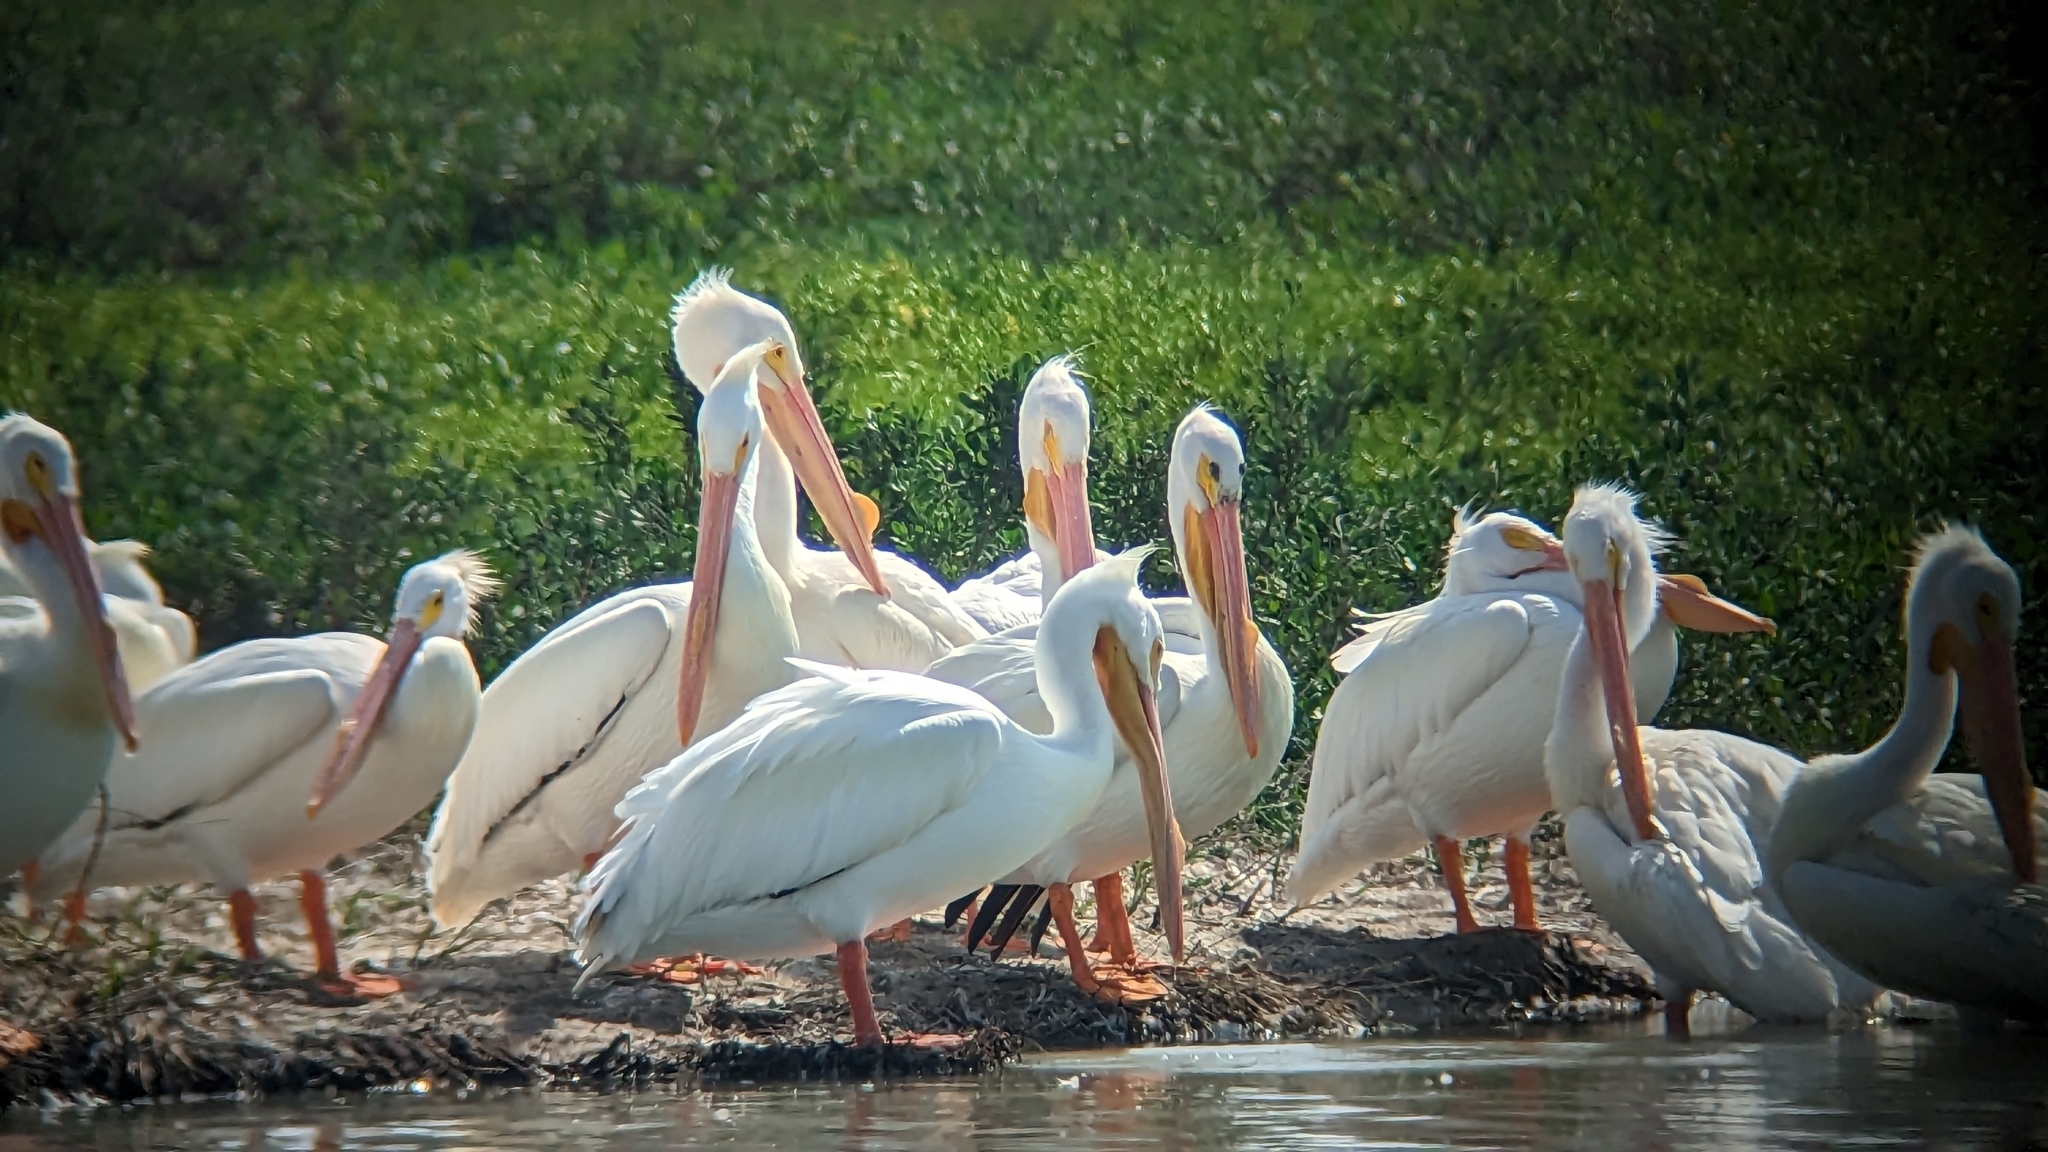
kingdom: Animalia
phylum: Chordata
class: Aves
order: Pelecaniformes
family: Pelecanidae
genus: Pelecanus
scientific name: Pelecanus erythrorhynchos
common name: American white pelican
